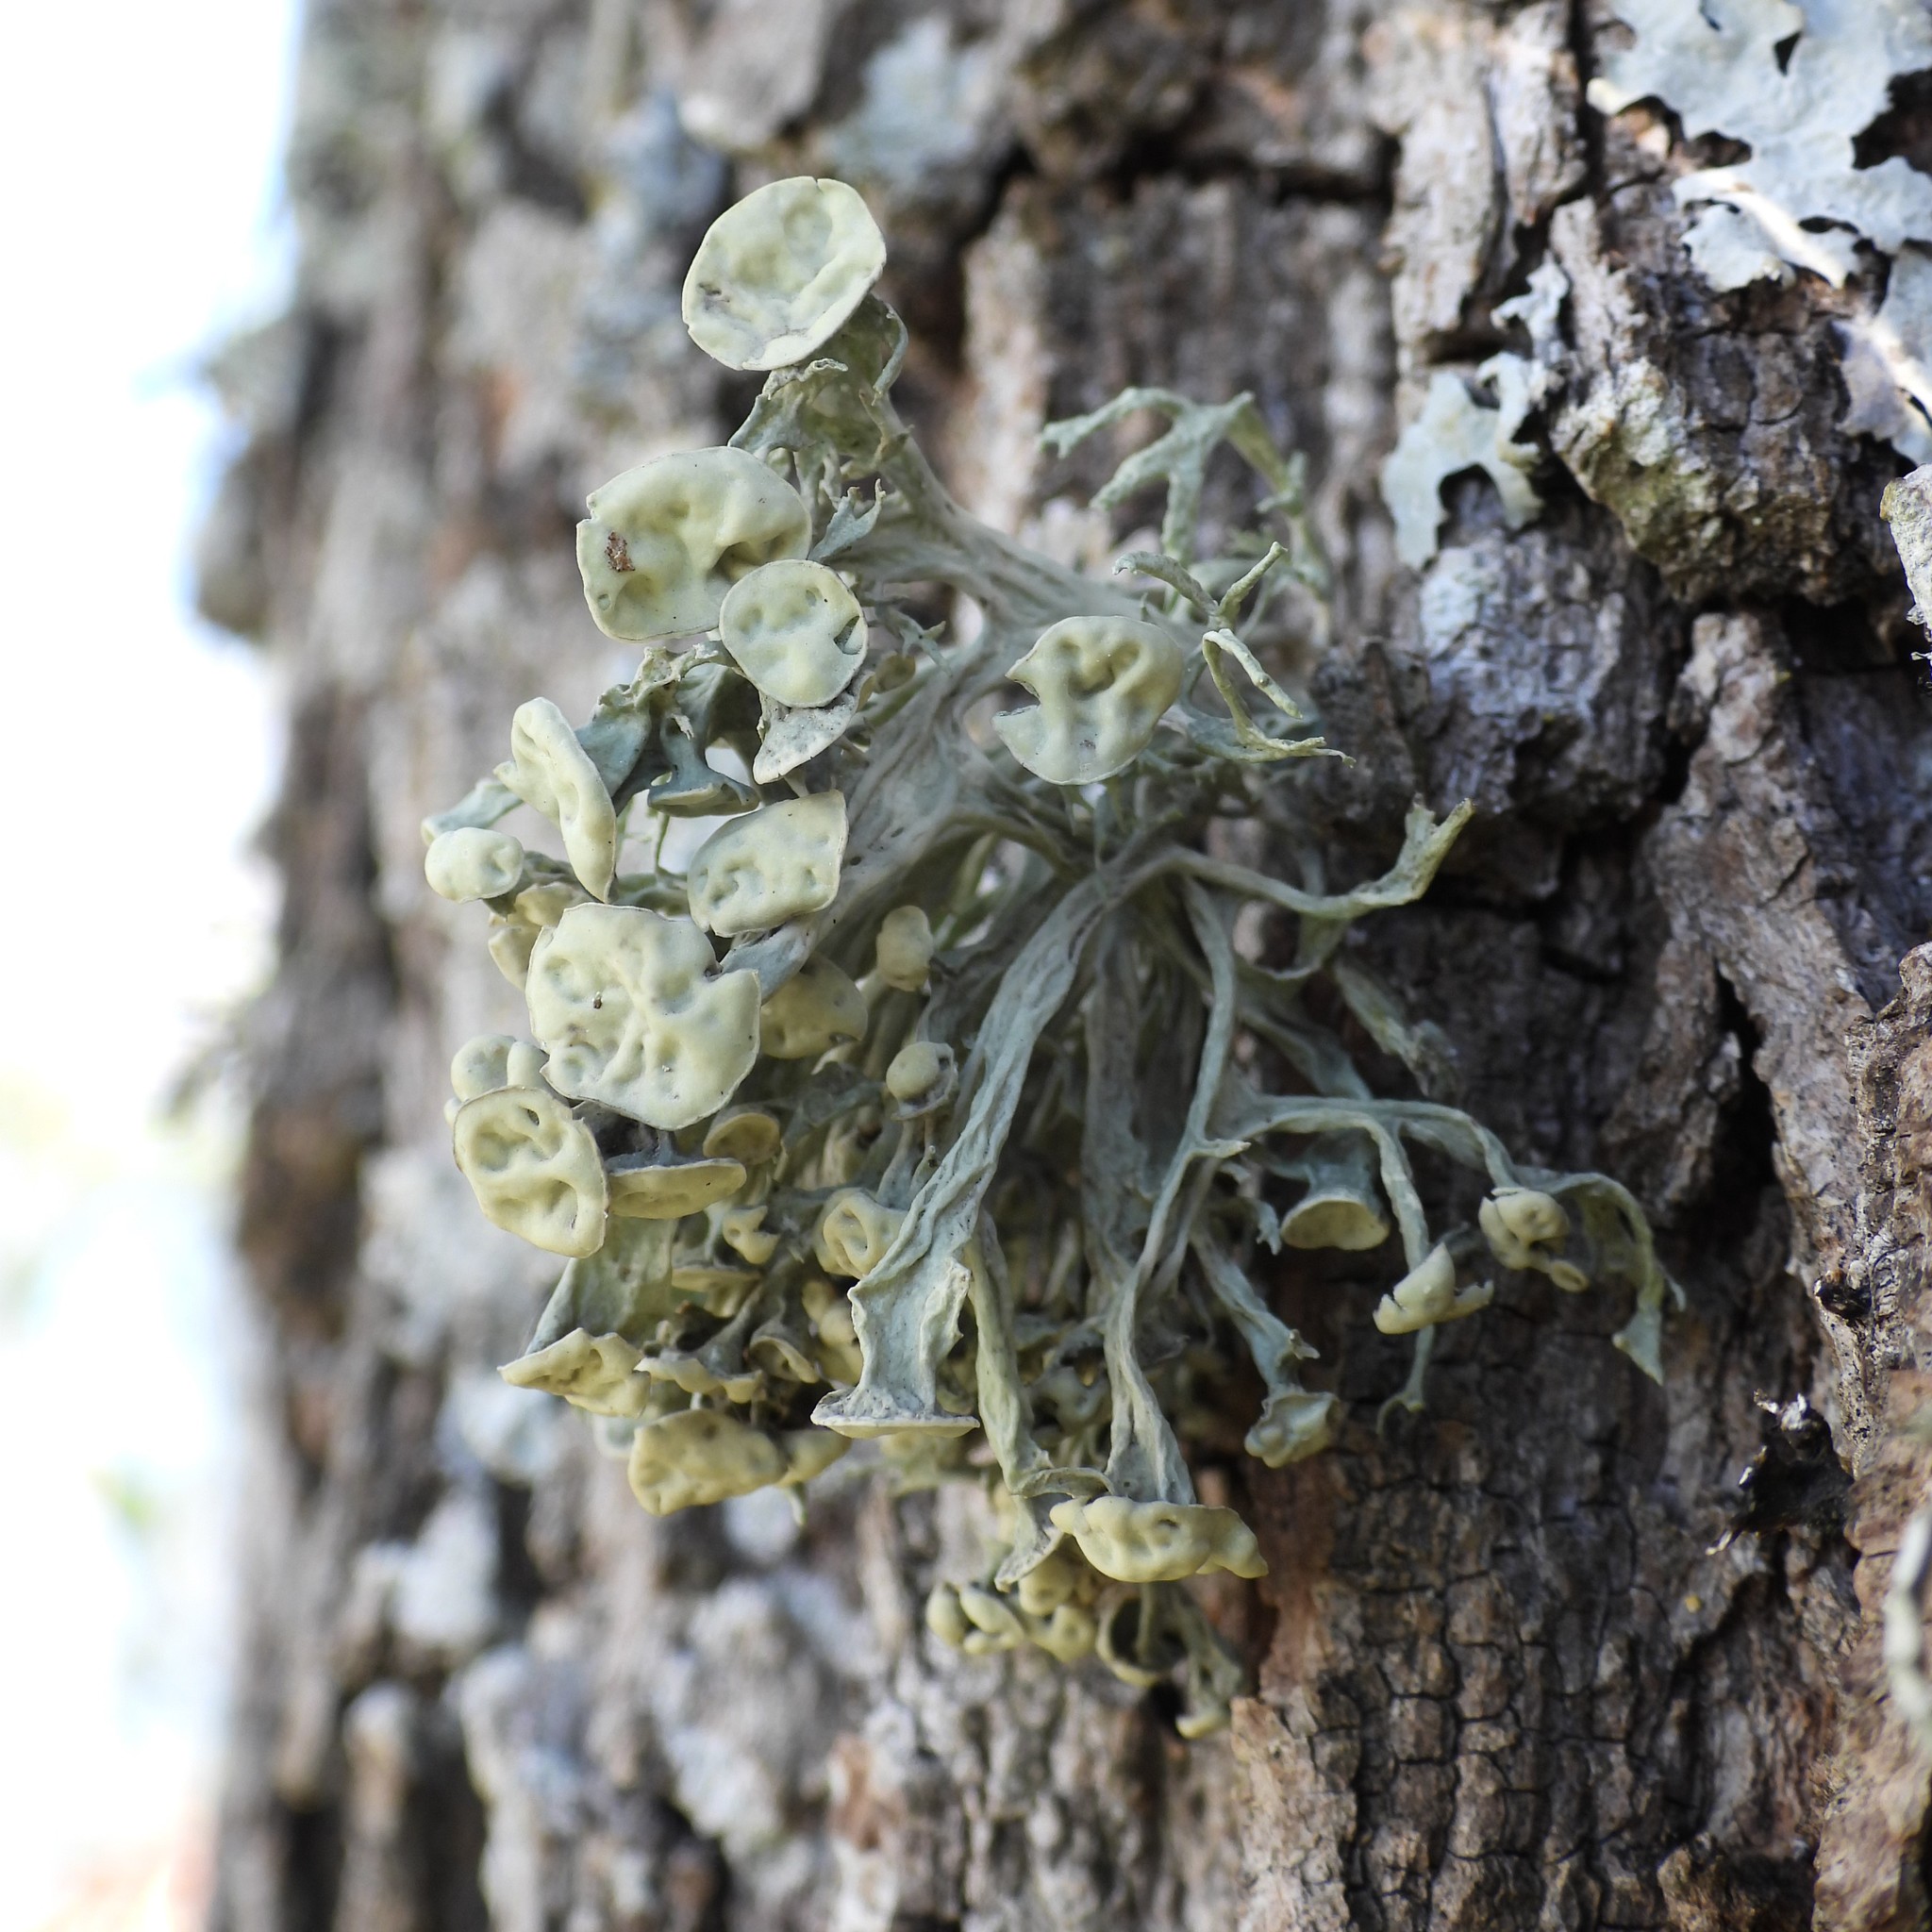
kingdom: Fungi
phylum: Ascomycota
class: Lecanoromycetes
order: Lecanorales
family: Ramalinaceae
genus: Ramalina
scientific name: Ramalina fastigiata
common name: Dotted ribbon lichen
